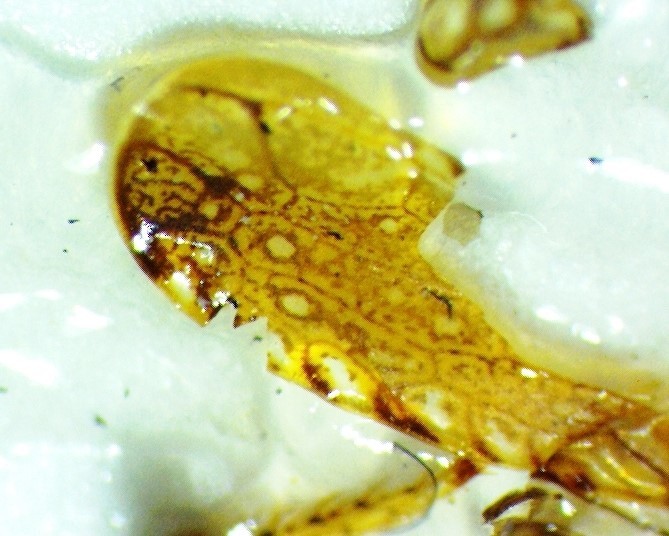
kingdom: Animalia
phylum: Arthropoda
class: Insecta
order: Hemiptera
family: Cicadellidae
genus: Scaphytopius
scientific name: Scaphytopius rubellus
